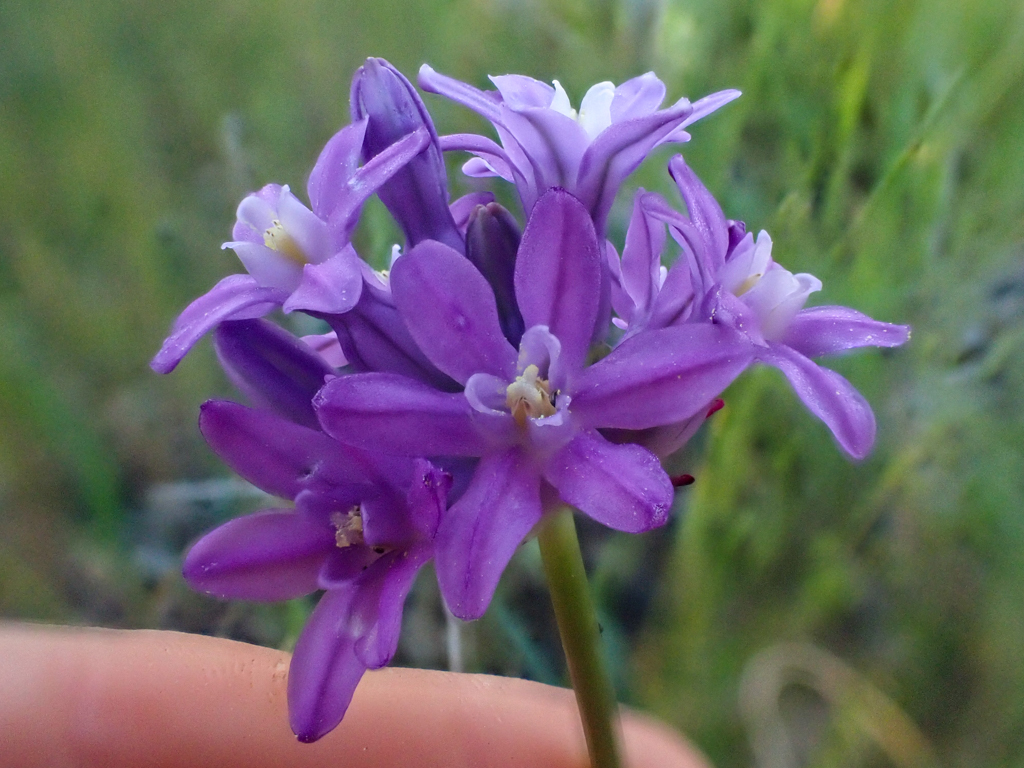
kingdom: Plantae
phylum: Tracheophyta
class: Liliopsida
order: Asparagales
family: Asparagaceae
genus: Dichelostemma
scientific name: Dichelostemma multiflorum
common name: Round-tooth ookow
